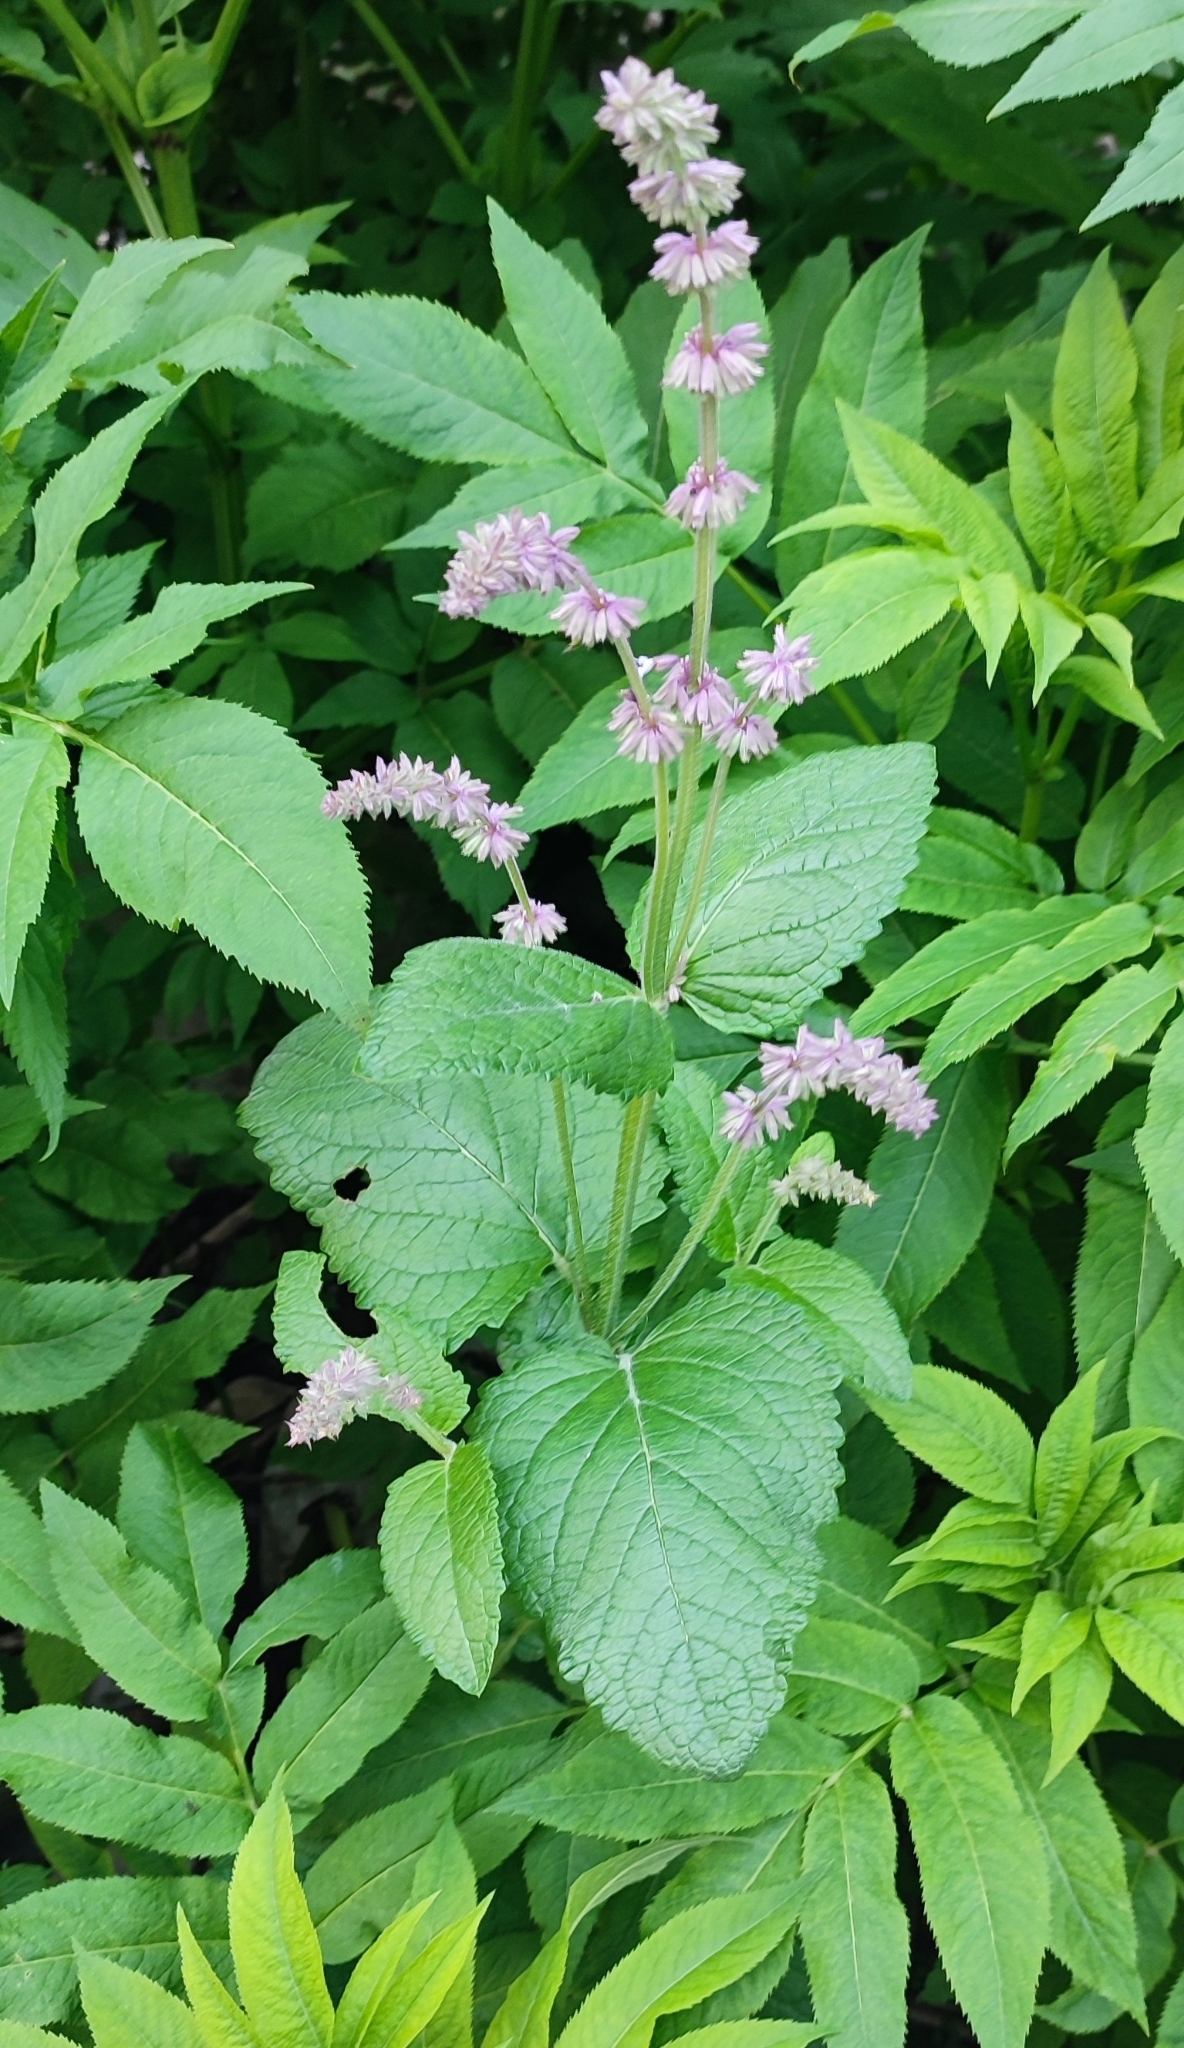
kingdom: Plantae
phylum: Tracheophyta
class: Magnoliopsida
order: Lamiales
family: Lamiaceae
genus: Salvia
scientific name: Salvia verticillata
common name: Whorled clary
